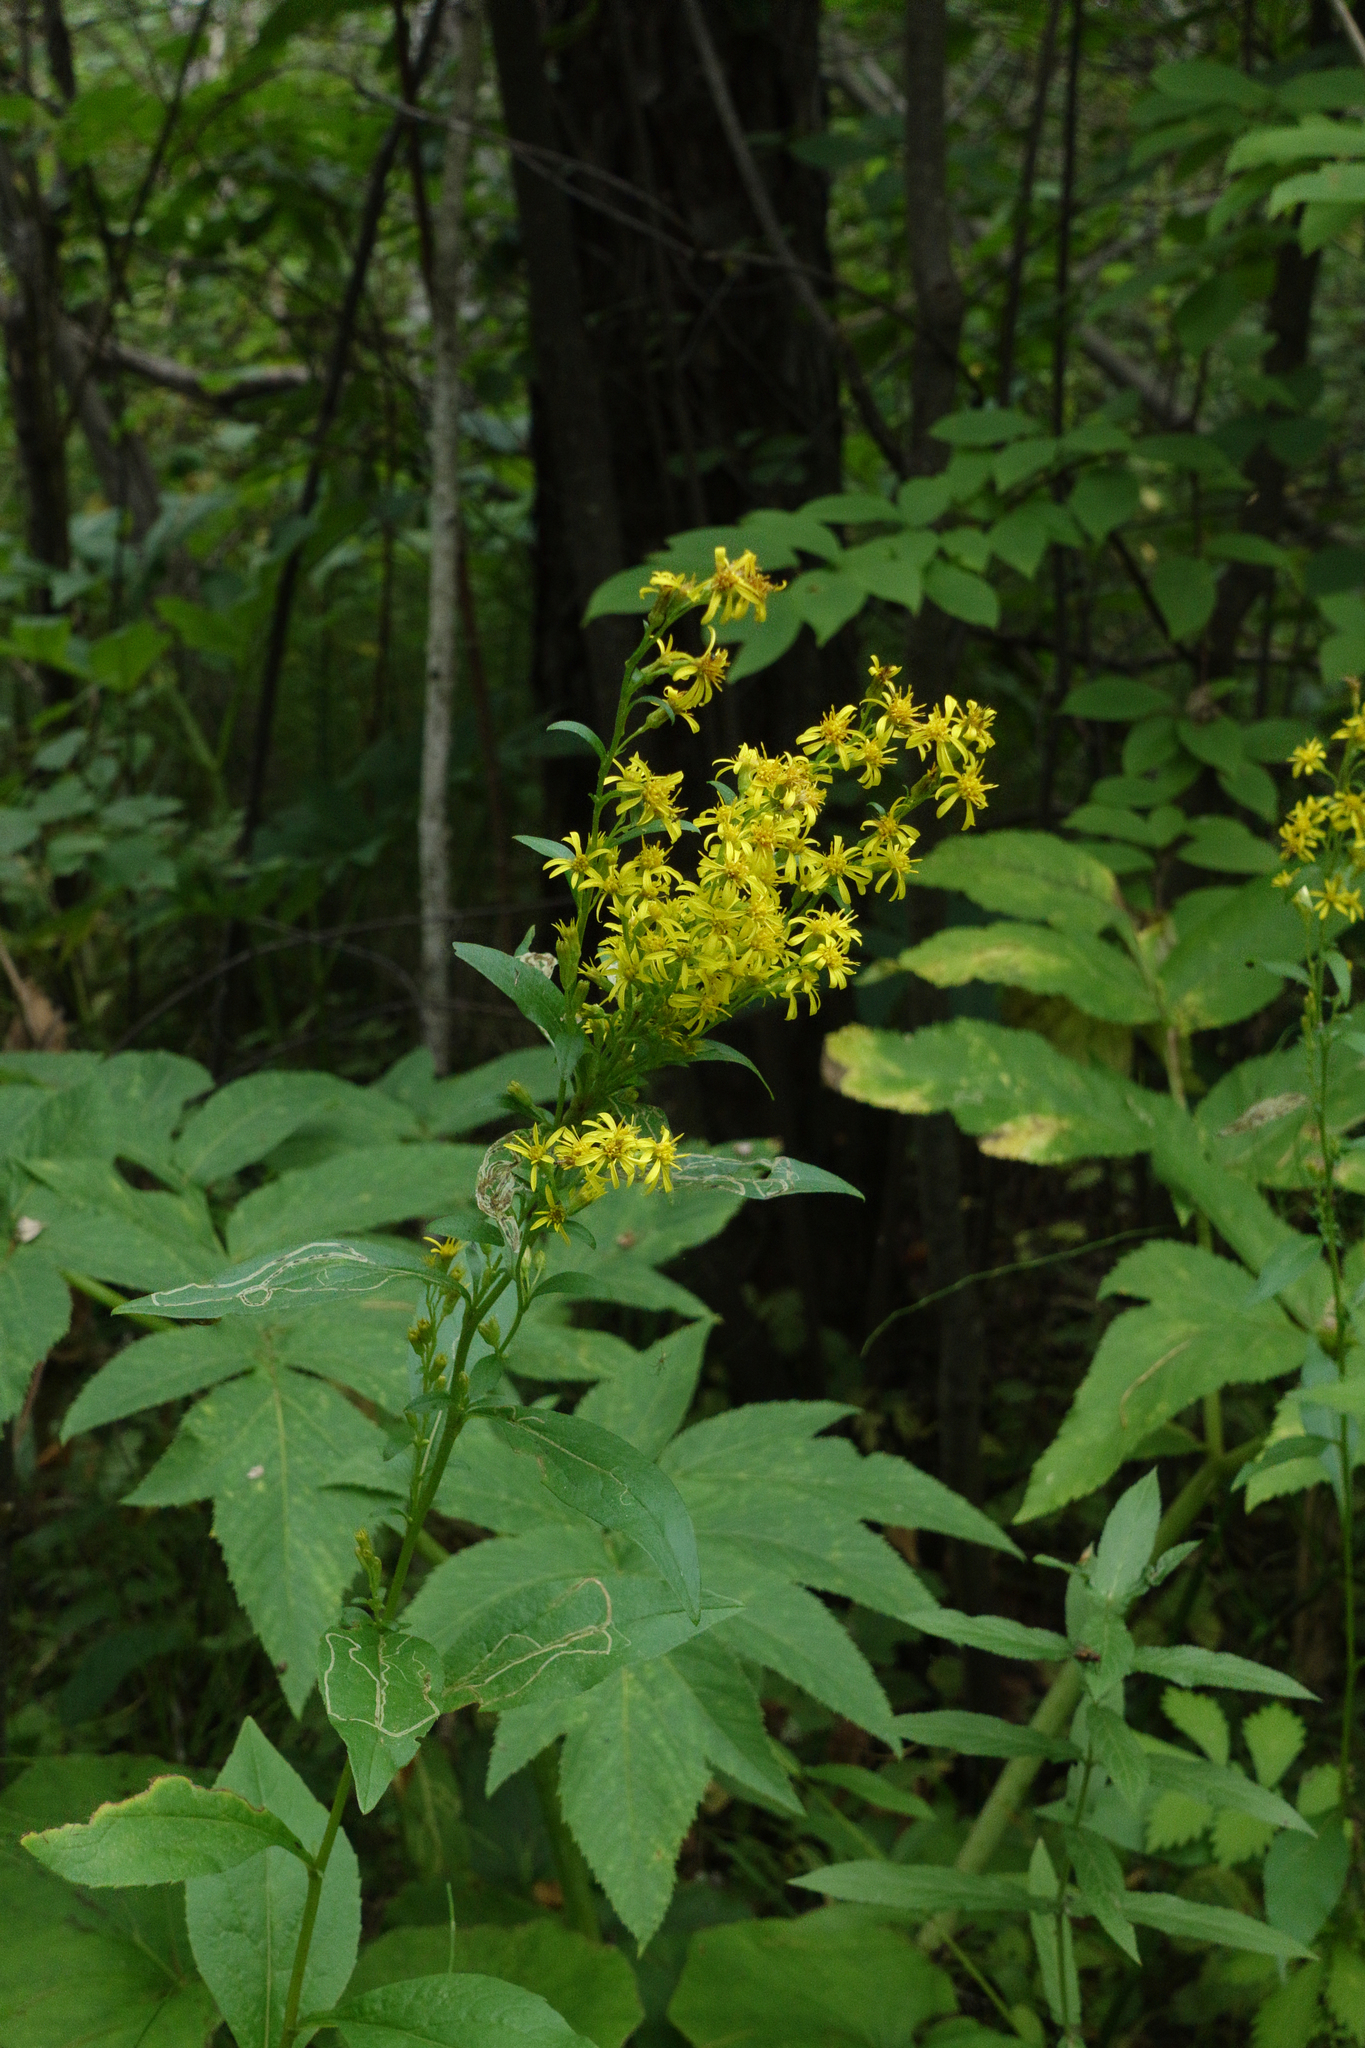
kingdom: Plantae
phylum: Tracheophyta
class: Magnoliopsida
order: Asterales
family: Asteraceae
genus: Solidago
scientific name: Solidago virgaurea
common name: Goldenrod
